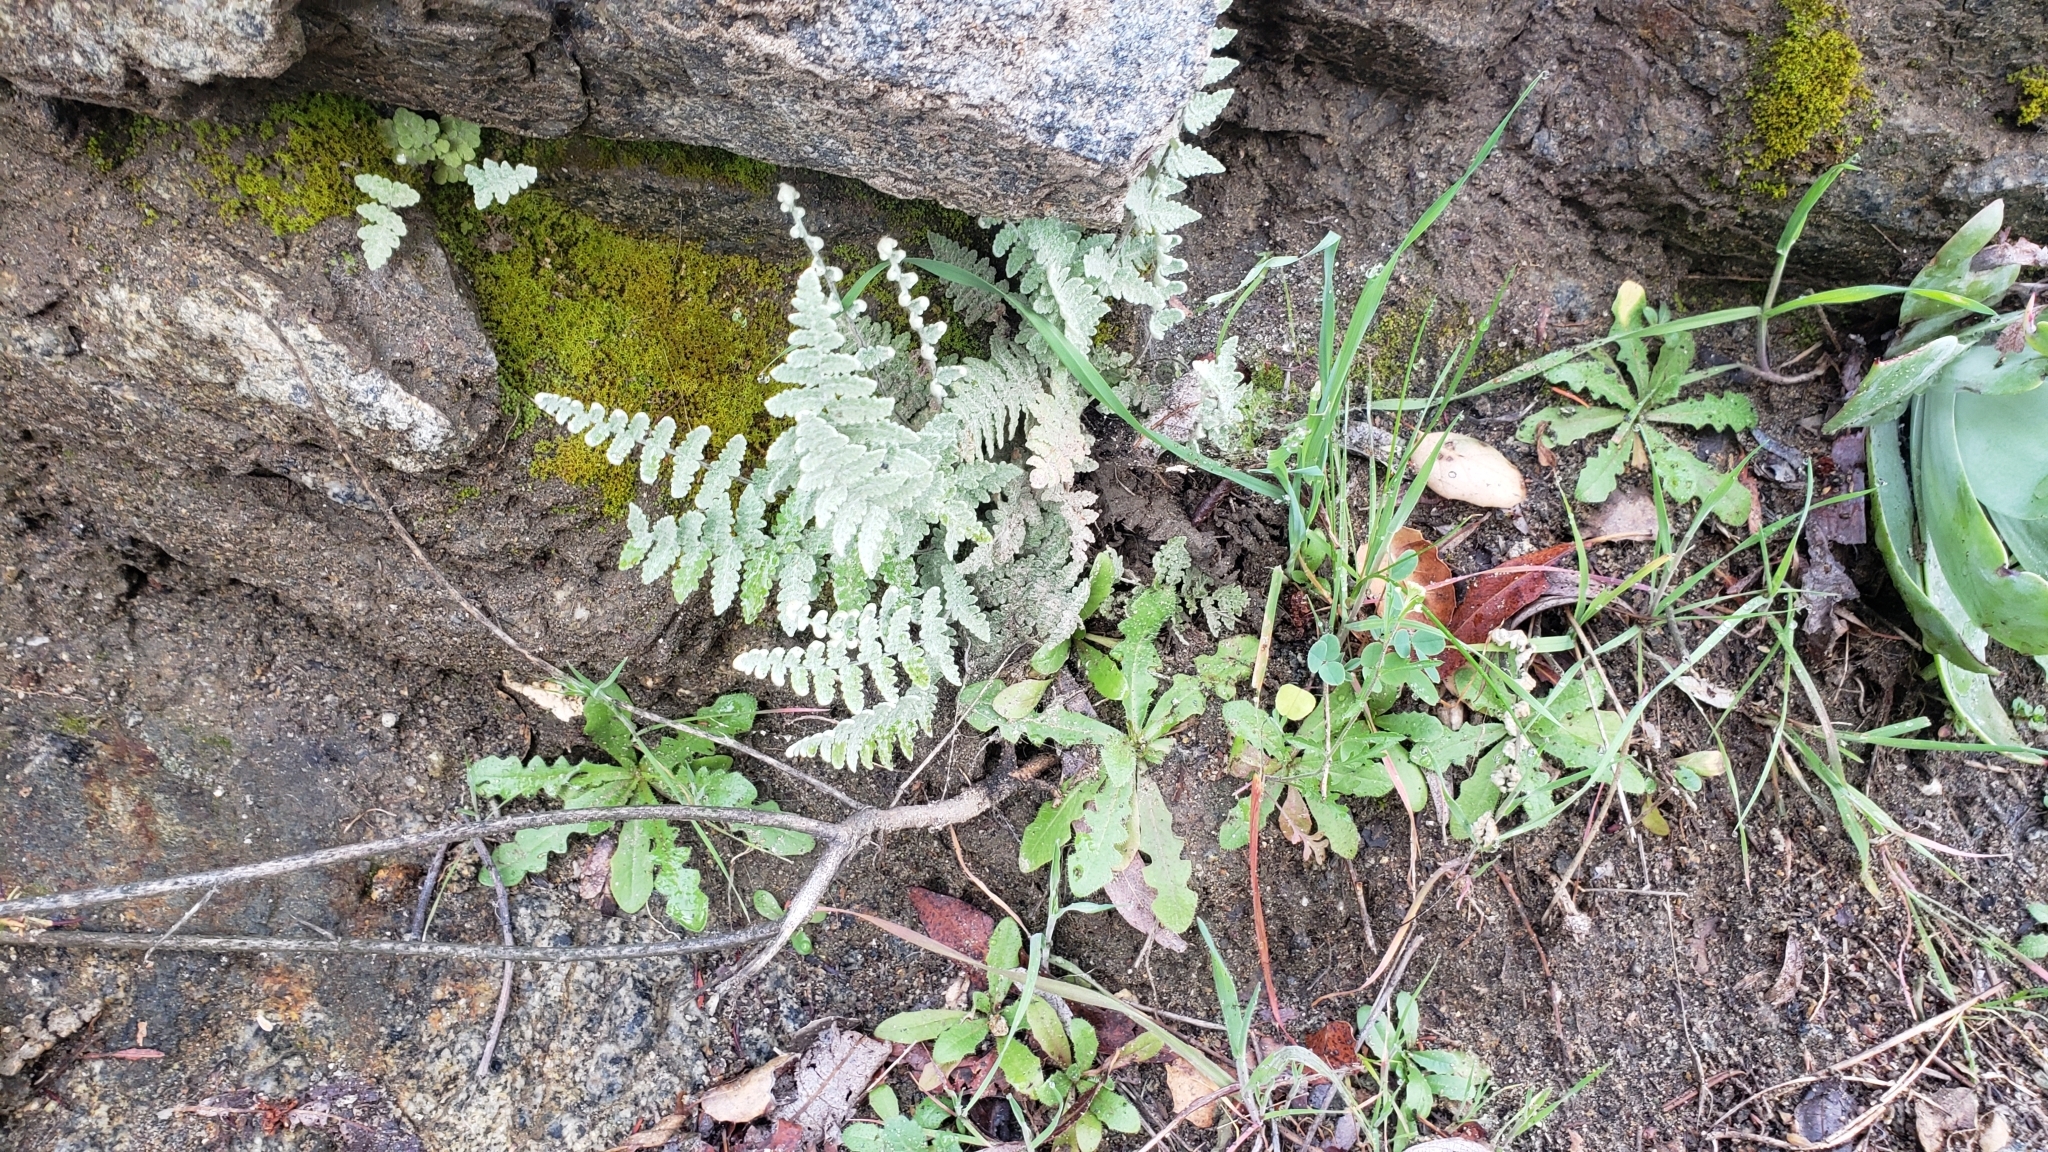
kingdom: Plantae
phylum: Tracheophyta
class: Polypodiopsida
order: Polypodiales
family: Pteridaceae
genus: Myriopteris
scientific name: Myriopteris newberryi
